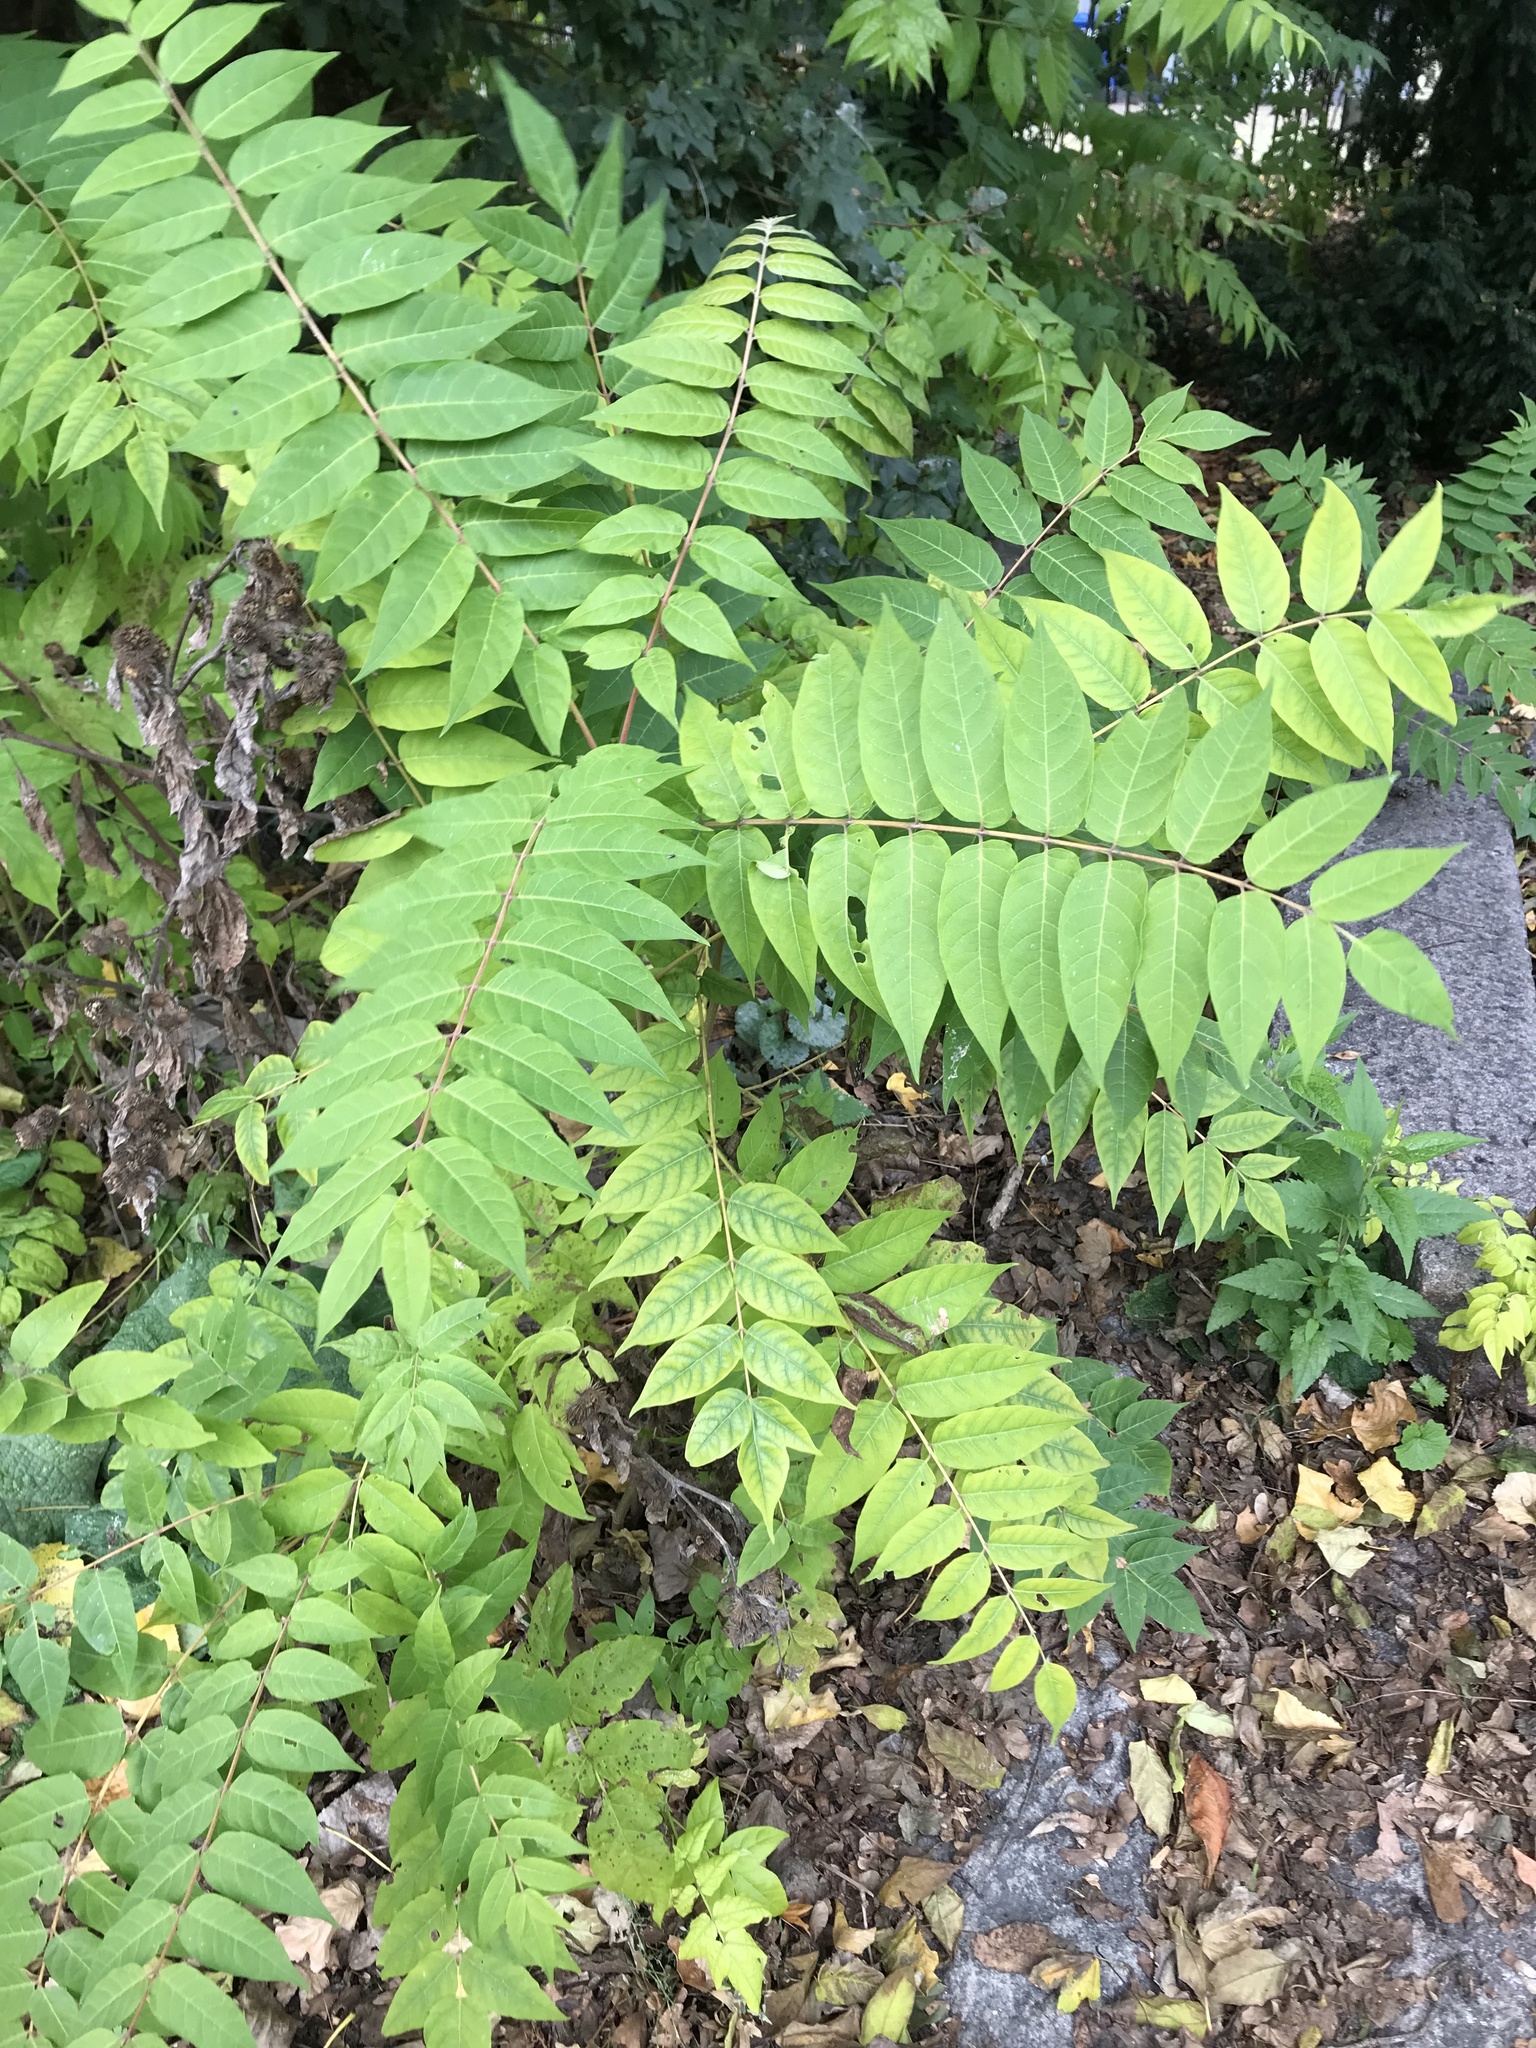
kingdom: Plantae
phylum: Tracheophyta
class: Magnoliopsida
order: Sapindales
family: Simaroubaceae
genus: Ailanthus
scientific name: Ailanthus altissima
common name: Tree-of-heaven
